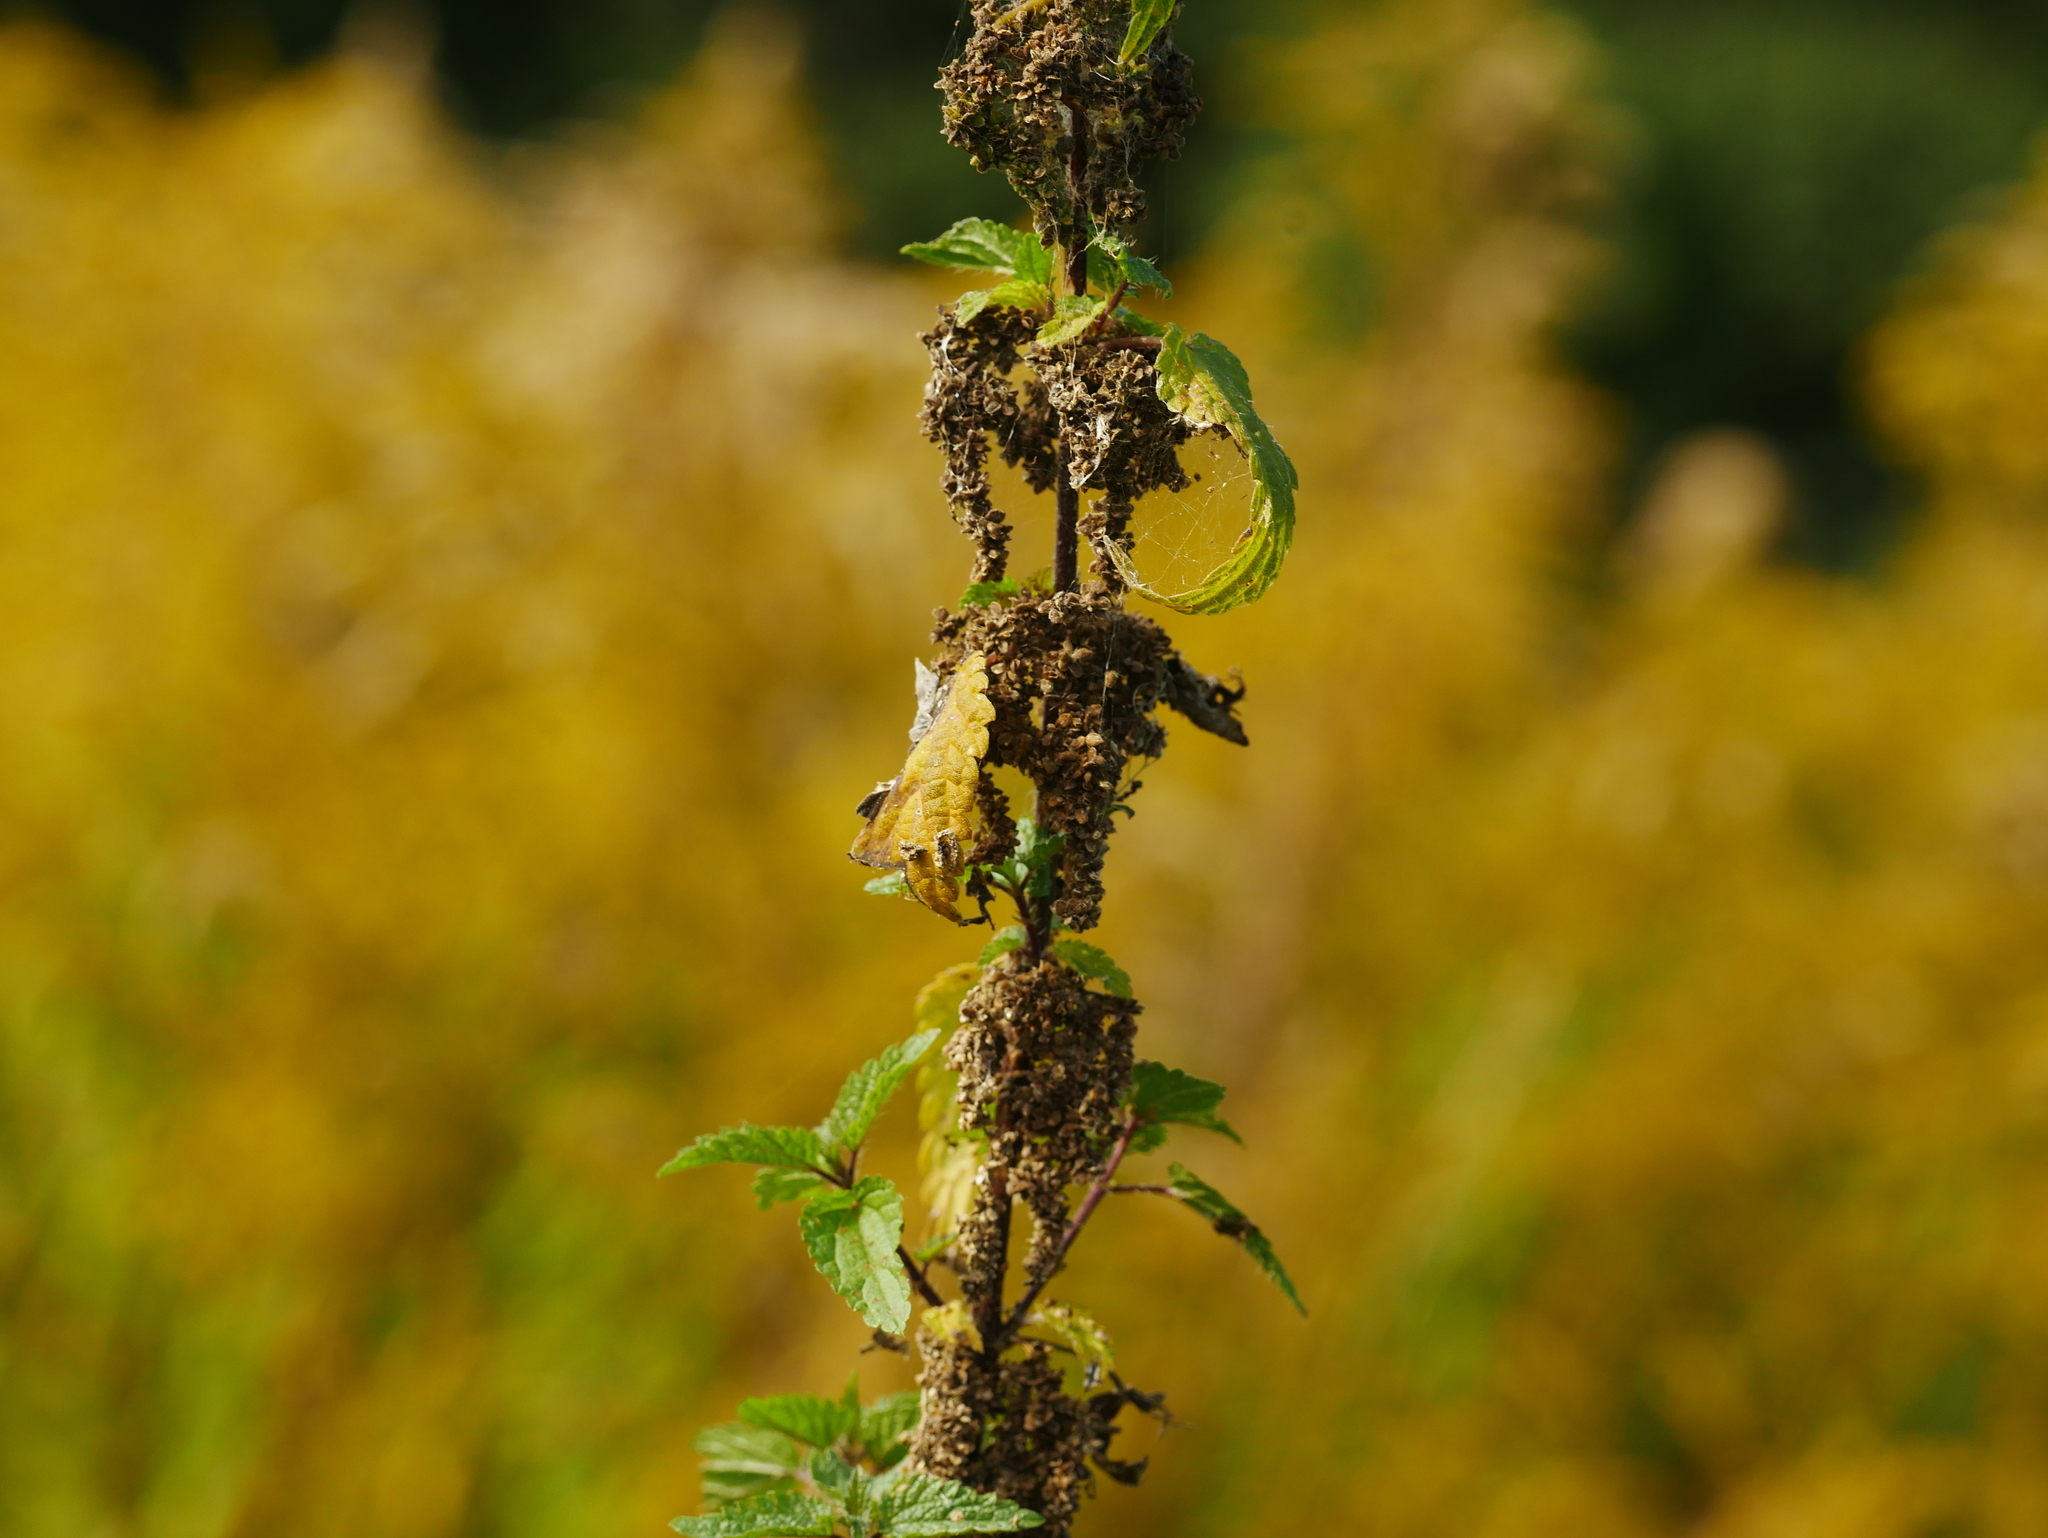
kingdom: Plantae
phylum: Tracheophyta
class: Magnoliopsida
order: Rosales
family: Urticaceae
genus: Urtica
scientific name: Urtica dioica
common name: Common nettle
